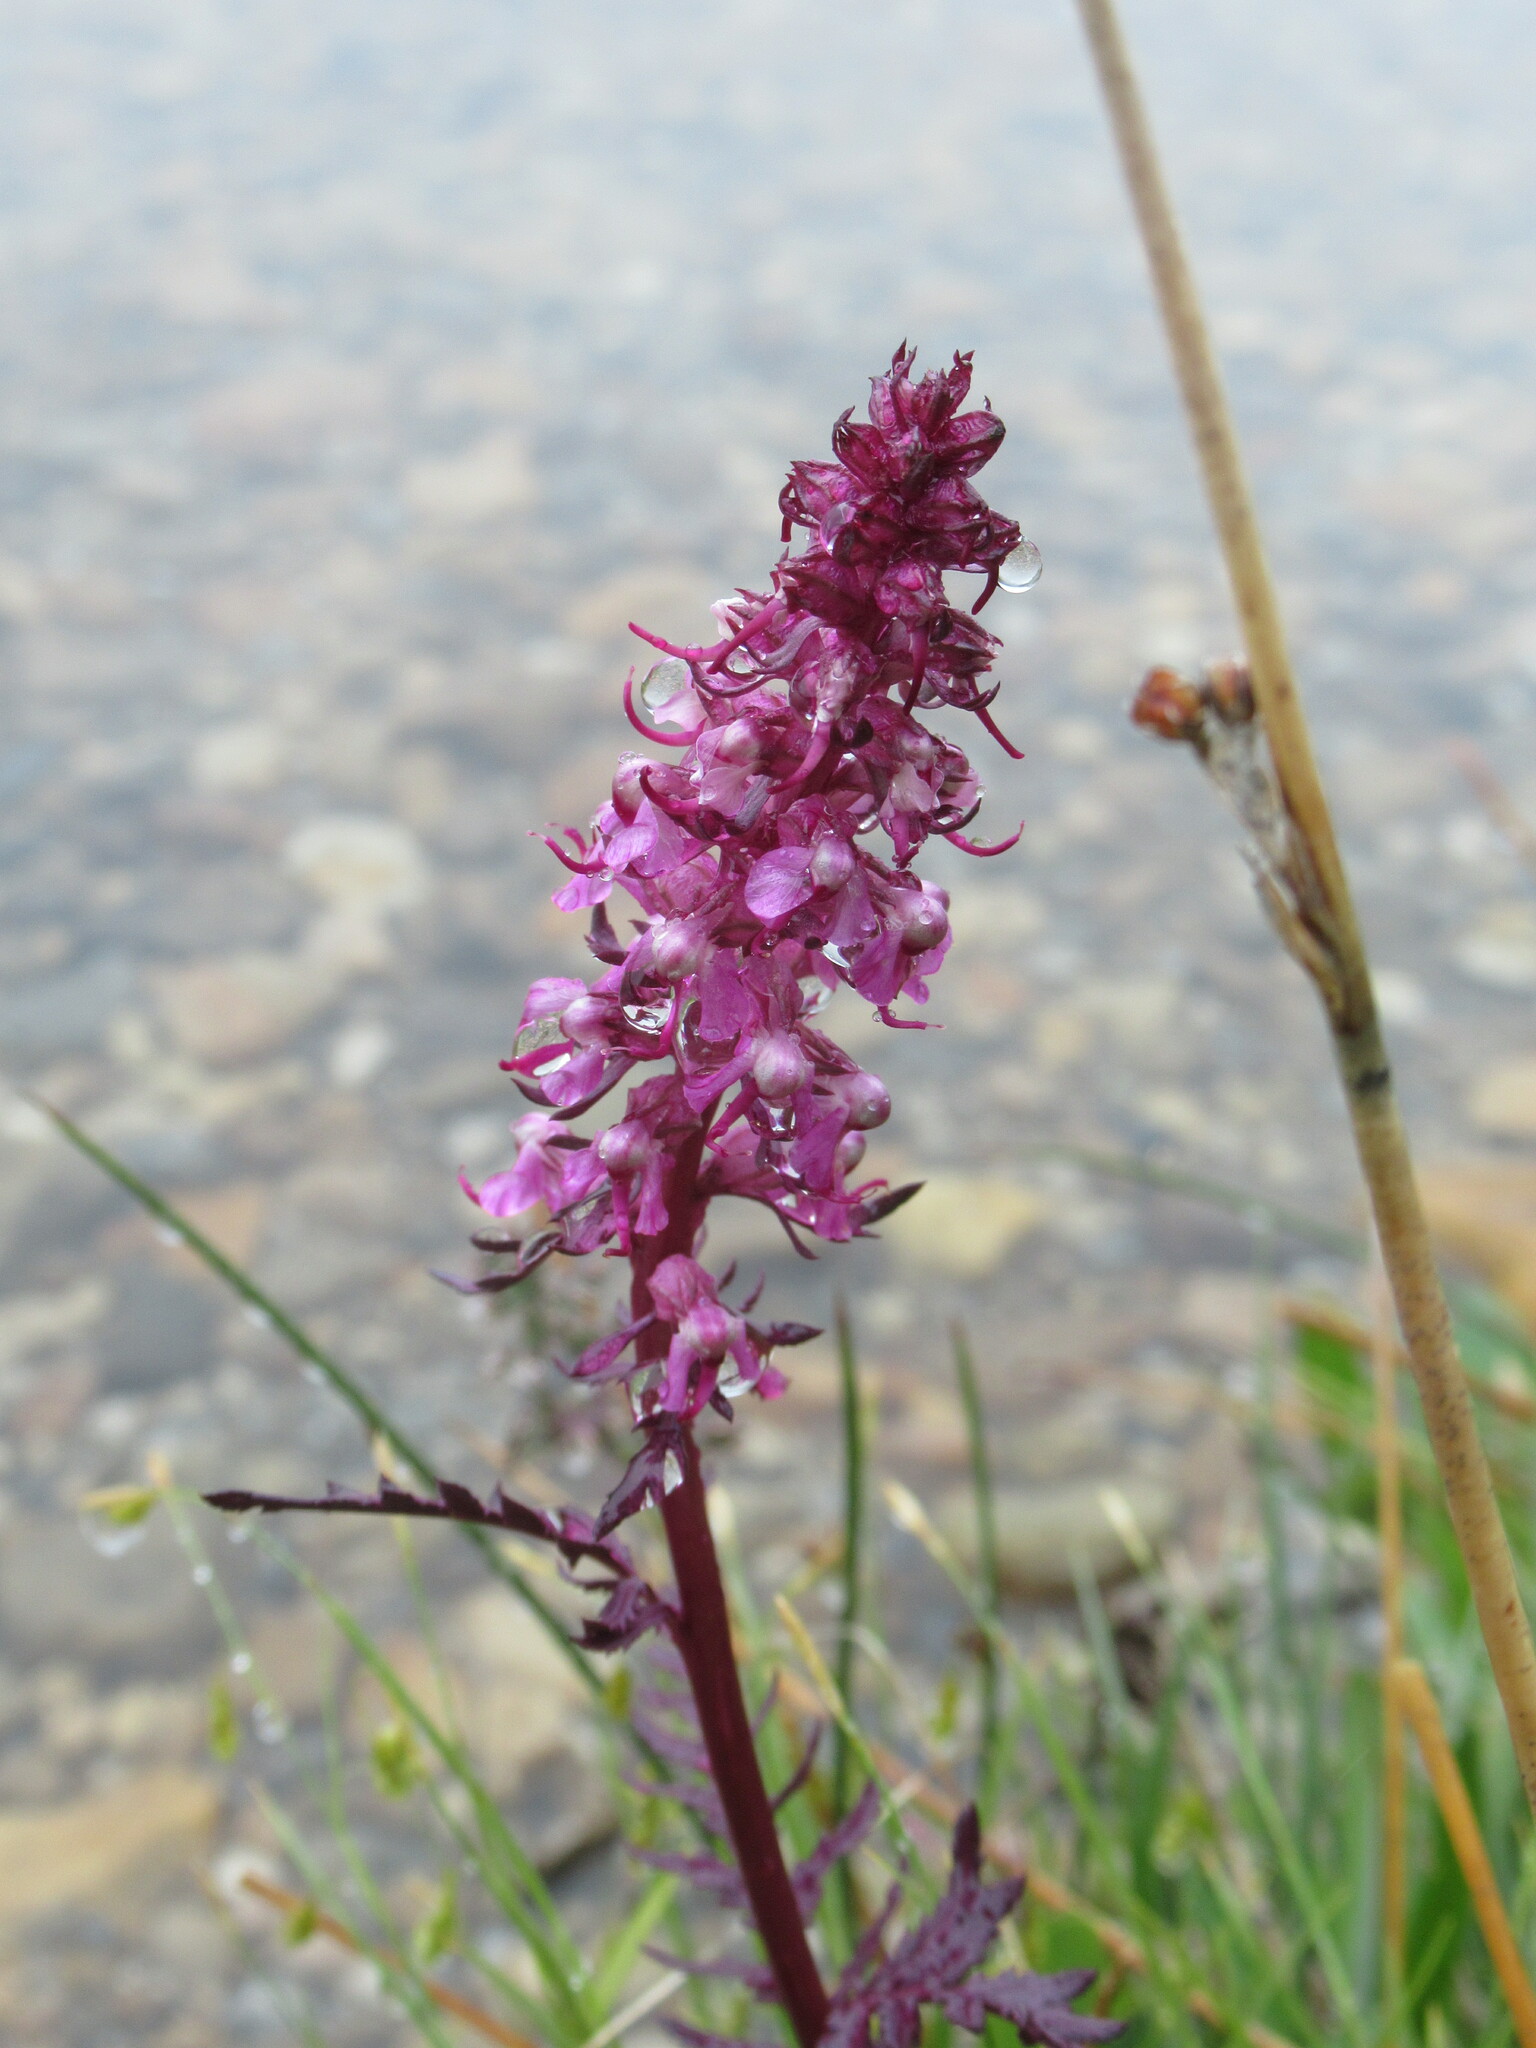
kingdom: Plantae
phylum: Tracheophyta
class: Magnoliopsida
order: Lamiales
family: Orobanchaceae
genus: Pedicularis
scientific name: Pedicularis groenlandica
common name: Elephant's-head
